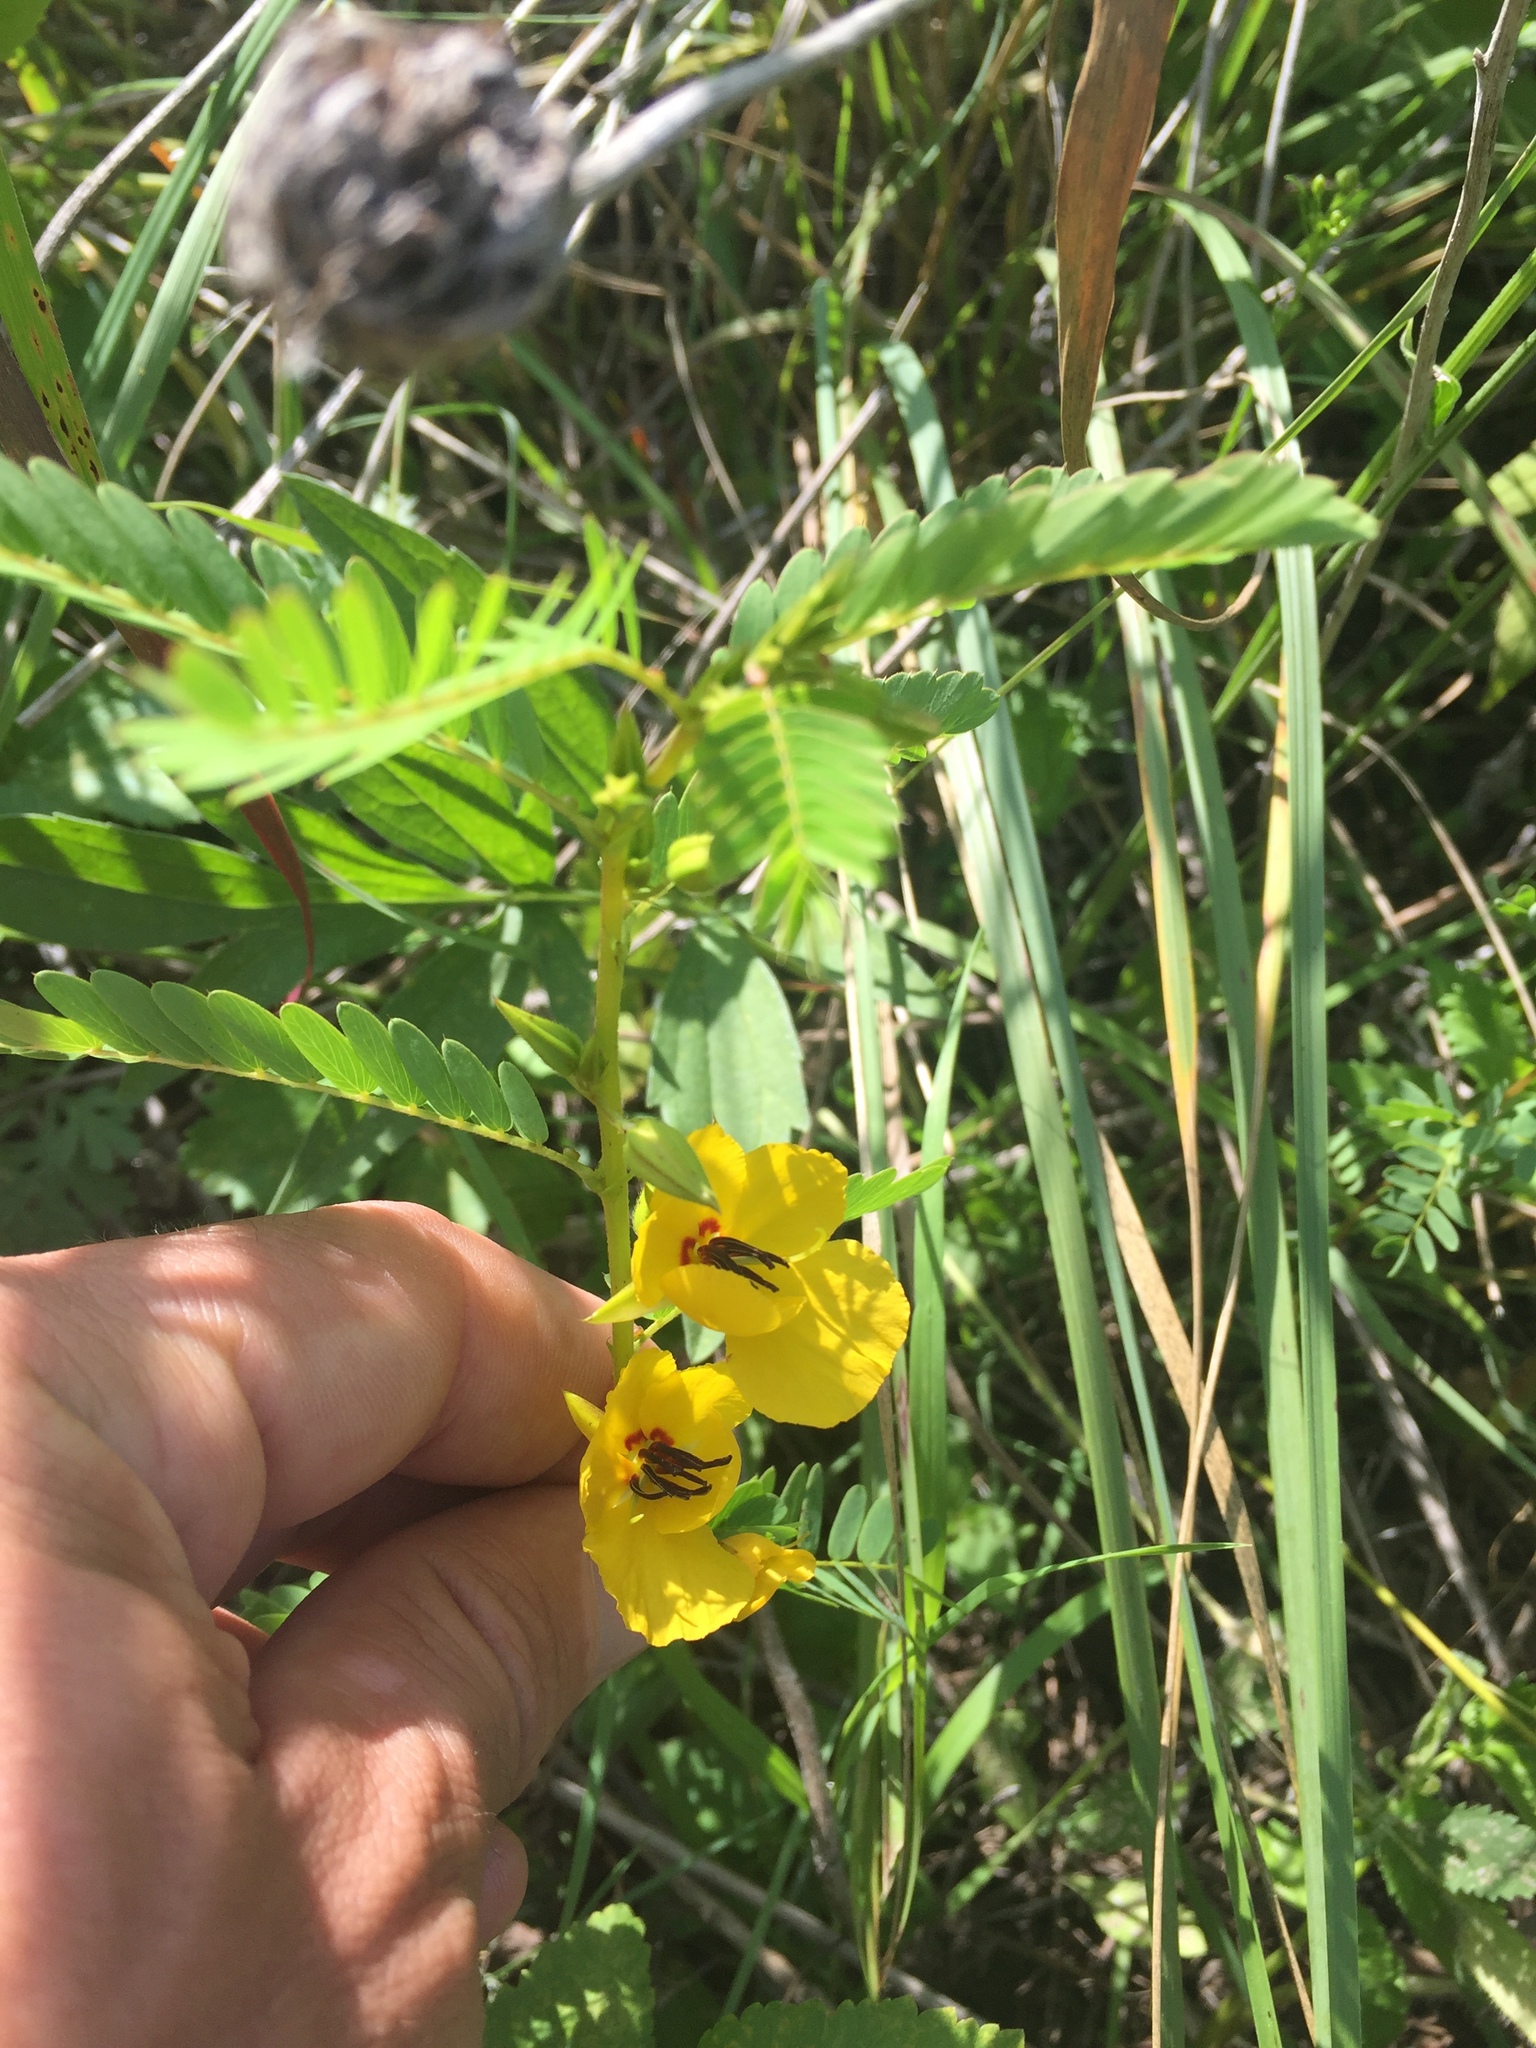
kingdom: Plantae
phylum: Tracheophyta
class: Magnoliopsida
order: Fabales
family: Fabaceae
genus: Chamaecrista
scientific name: Chamaecrista fasciculata
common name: Golden cassia
